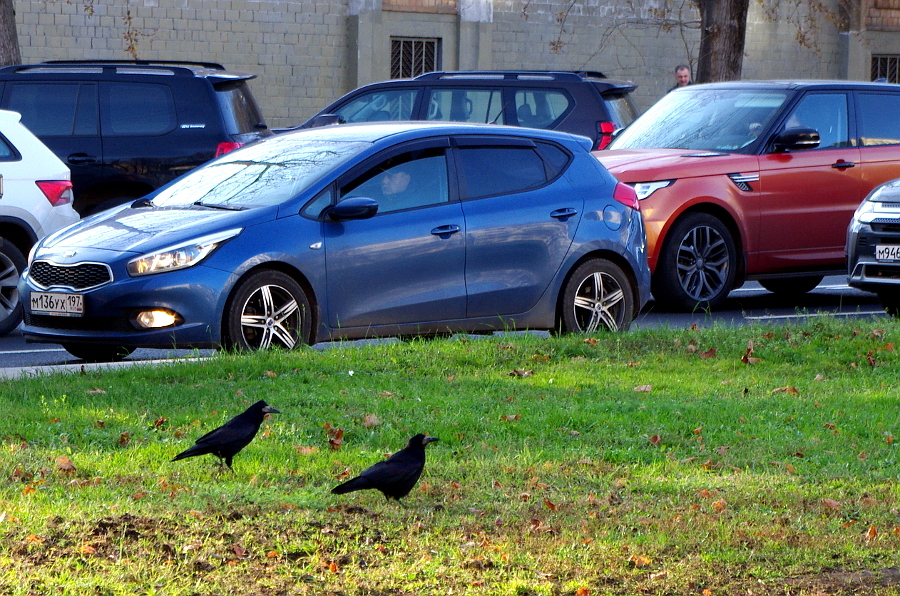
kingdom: Animalia
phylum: Chordata
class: Aves
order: Passeriformes
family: Corvidae
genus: Corvus
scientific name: Corvus frugilegus
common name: Rook
